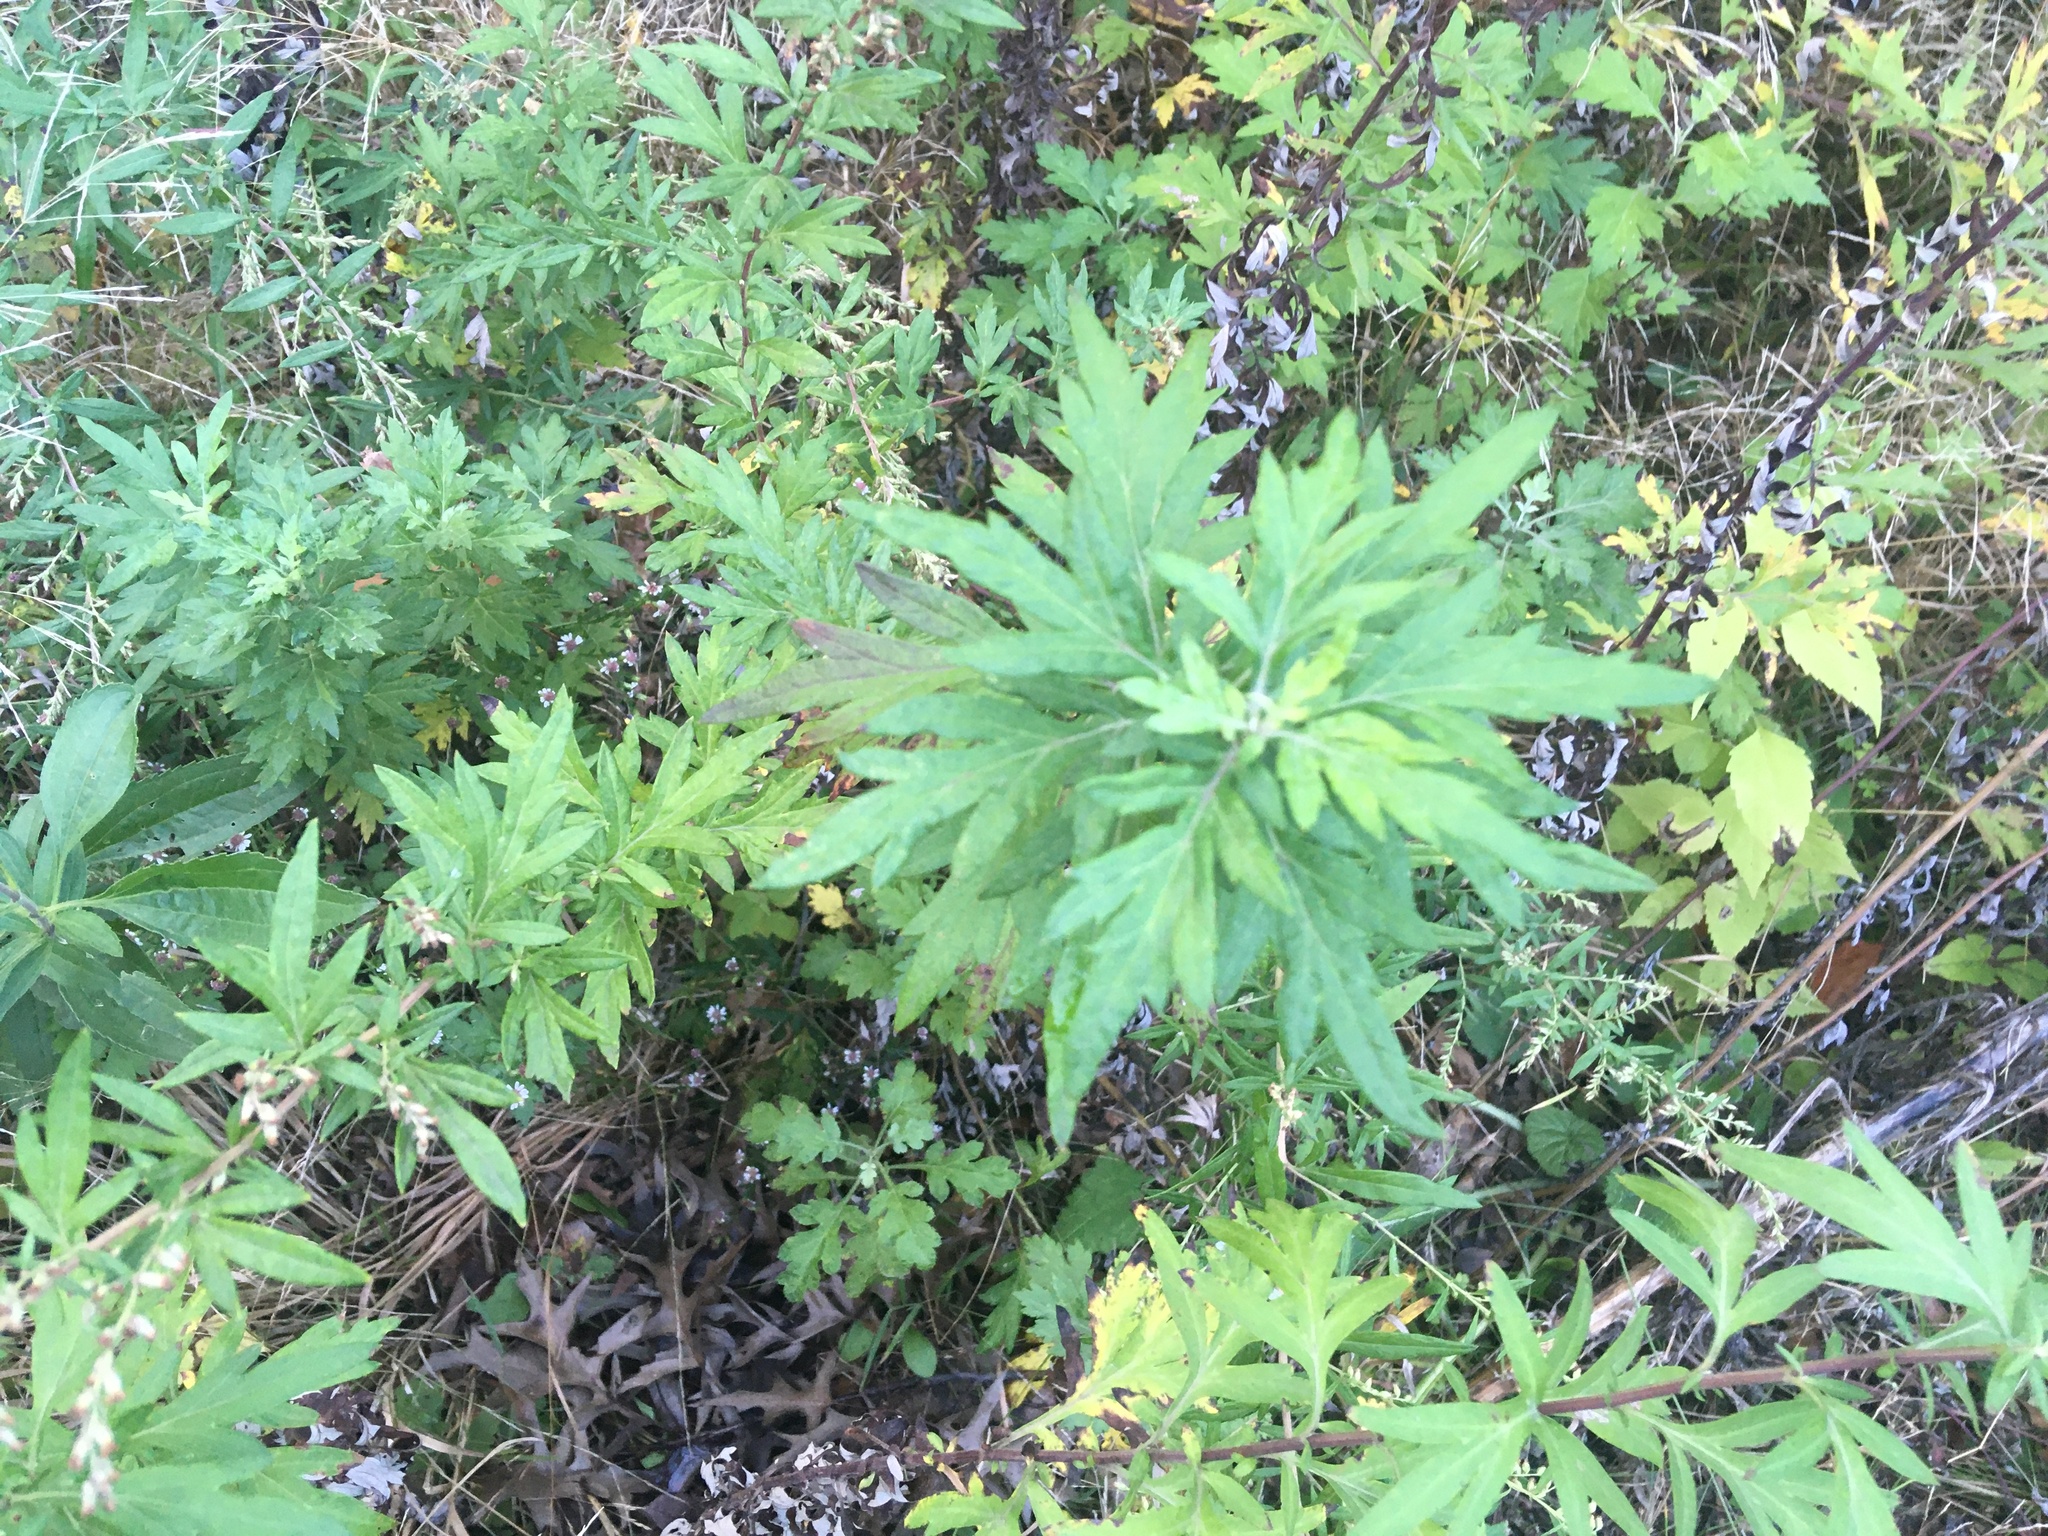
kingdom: Plantae
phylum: Tracheophyta
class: Magnoliopsida
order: Asterales
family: Asteraceae
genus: Artemisia
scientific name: Artemisia vulgaris
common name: Mugwort
